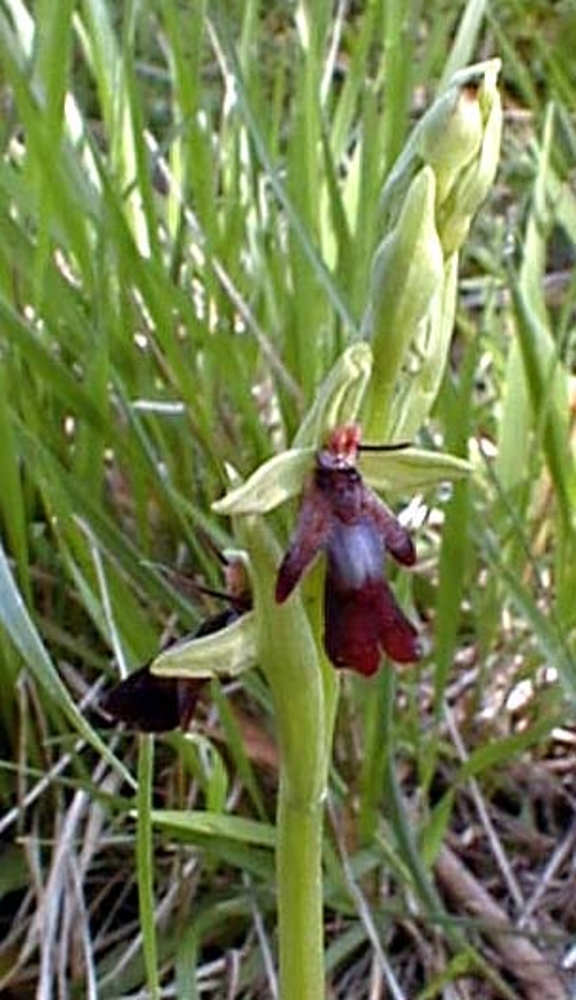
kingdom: Plantae
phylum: Tracheophyta
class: Liliopsida
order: Asparagales
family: Orchidaceae
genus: Ophrys
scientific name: Ophrys insectifera
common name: Fly orchid
